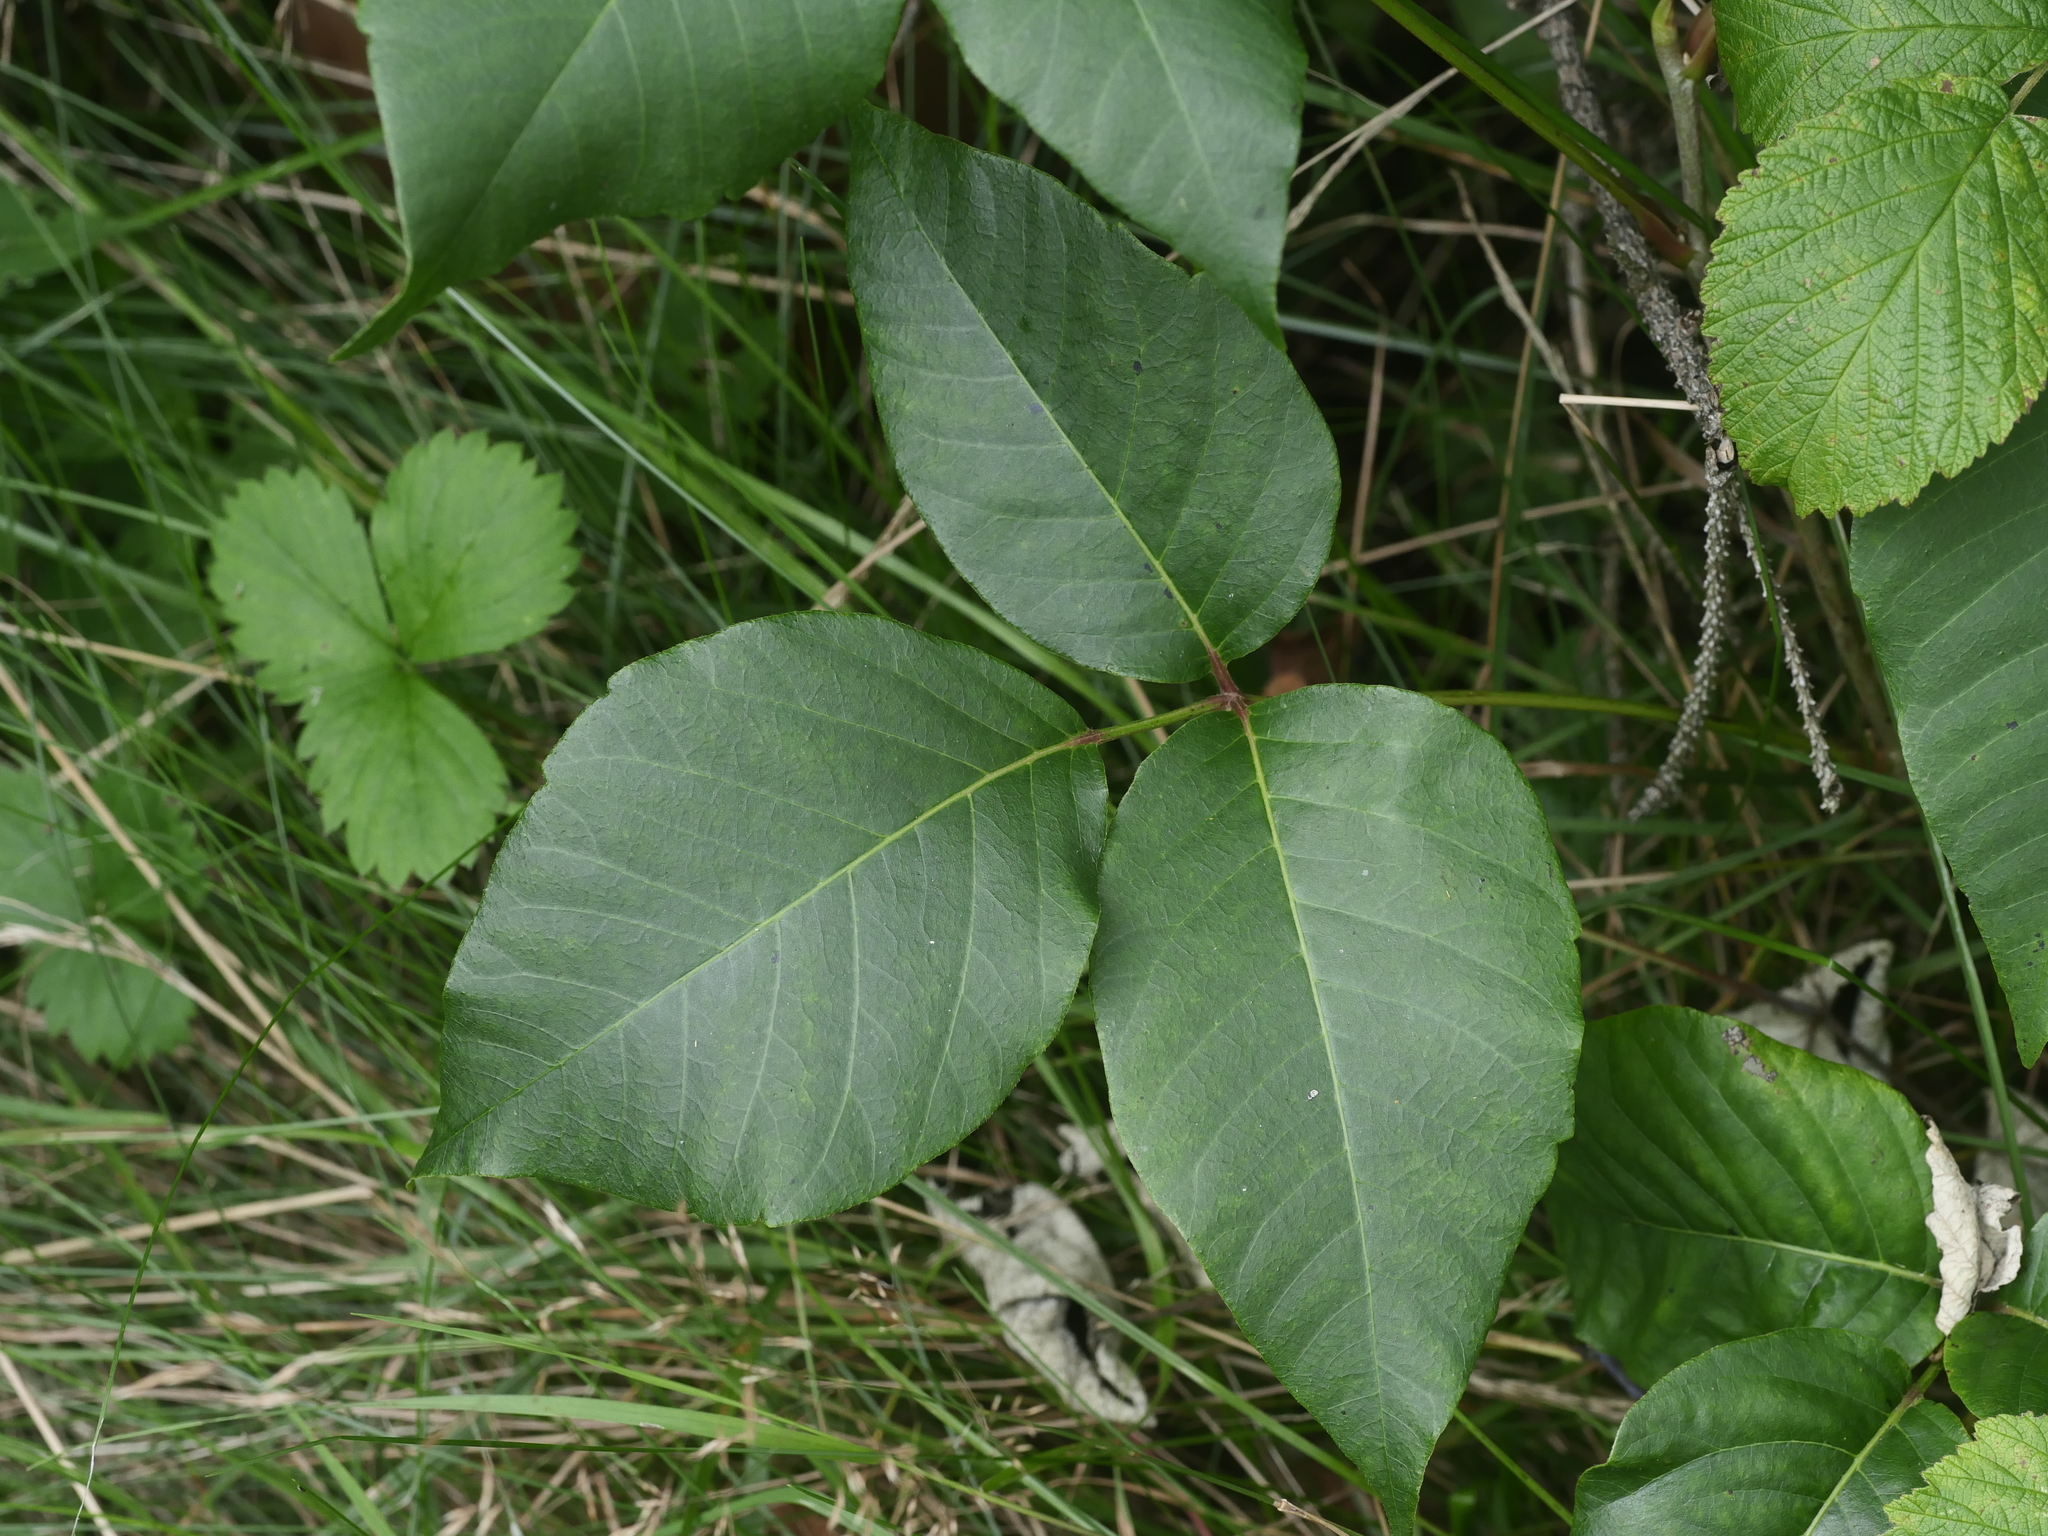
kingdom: Plantae
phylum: Tracheophyta
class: Magnoliopsida
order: Sapindales
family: Anacardiaceae
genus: Toxicodendron
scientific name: Toxicodendron rydbergii
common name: Rydberg's poison-ivy
